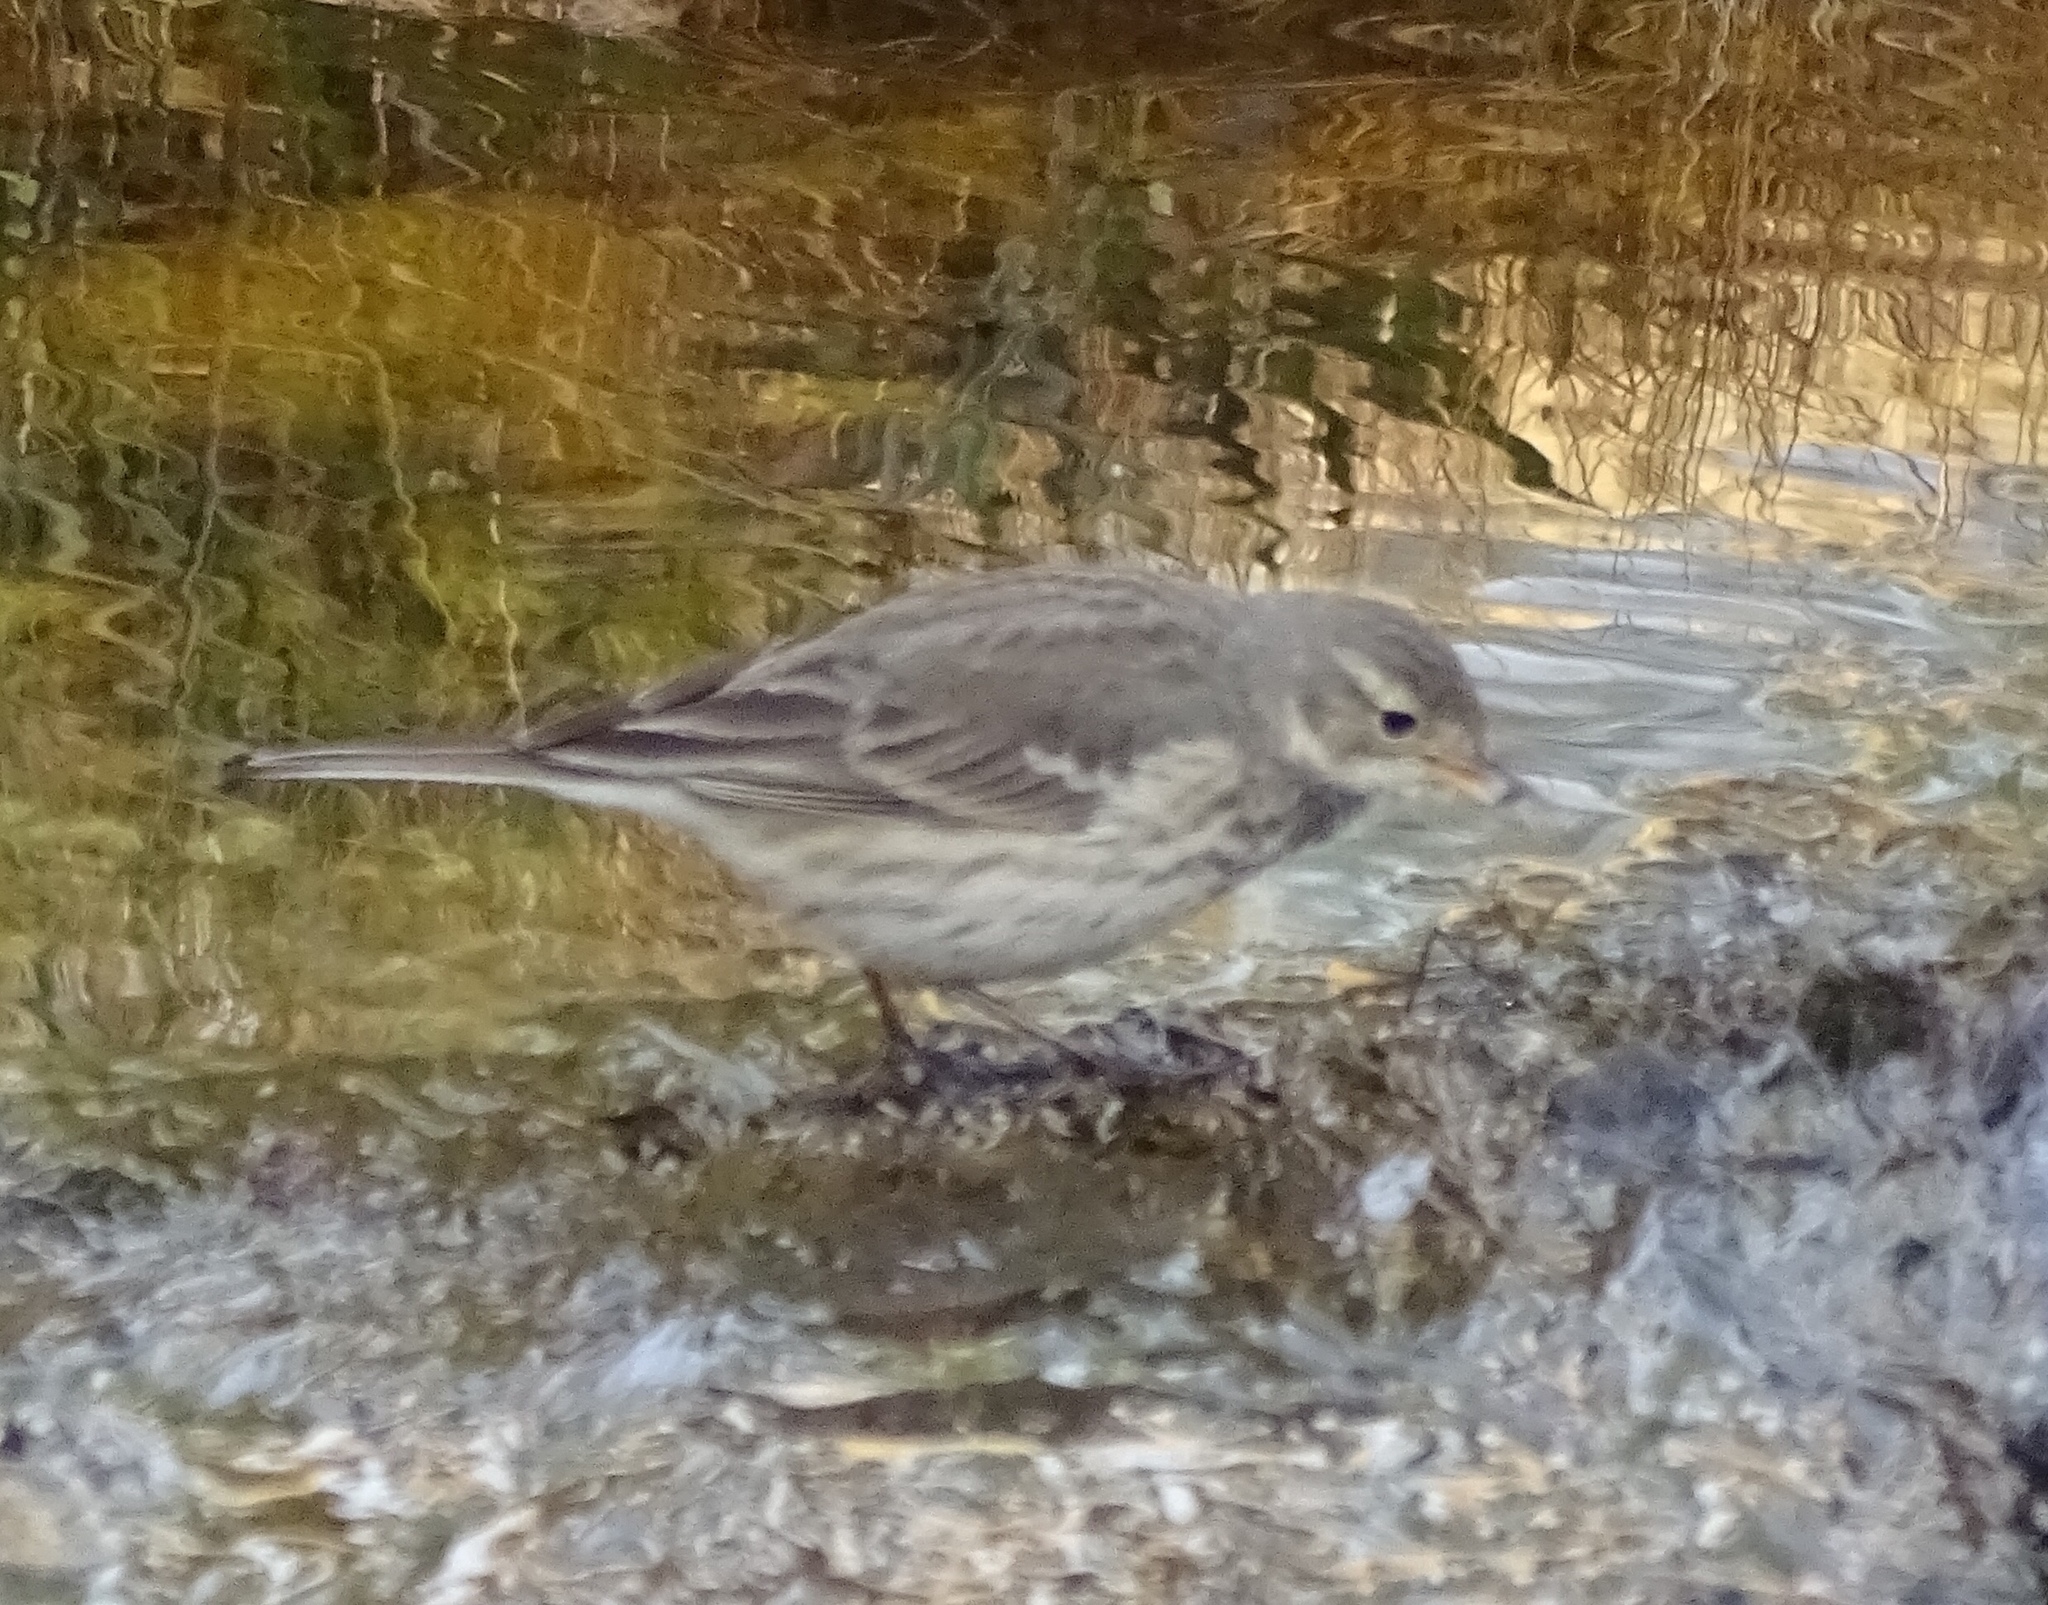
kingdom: Animalia
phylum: Chordata
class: Aves
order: Passeriformes
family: Motacillidae
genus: Anthus
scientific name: Anthus rubescens
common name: Buff-bellied pipit
